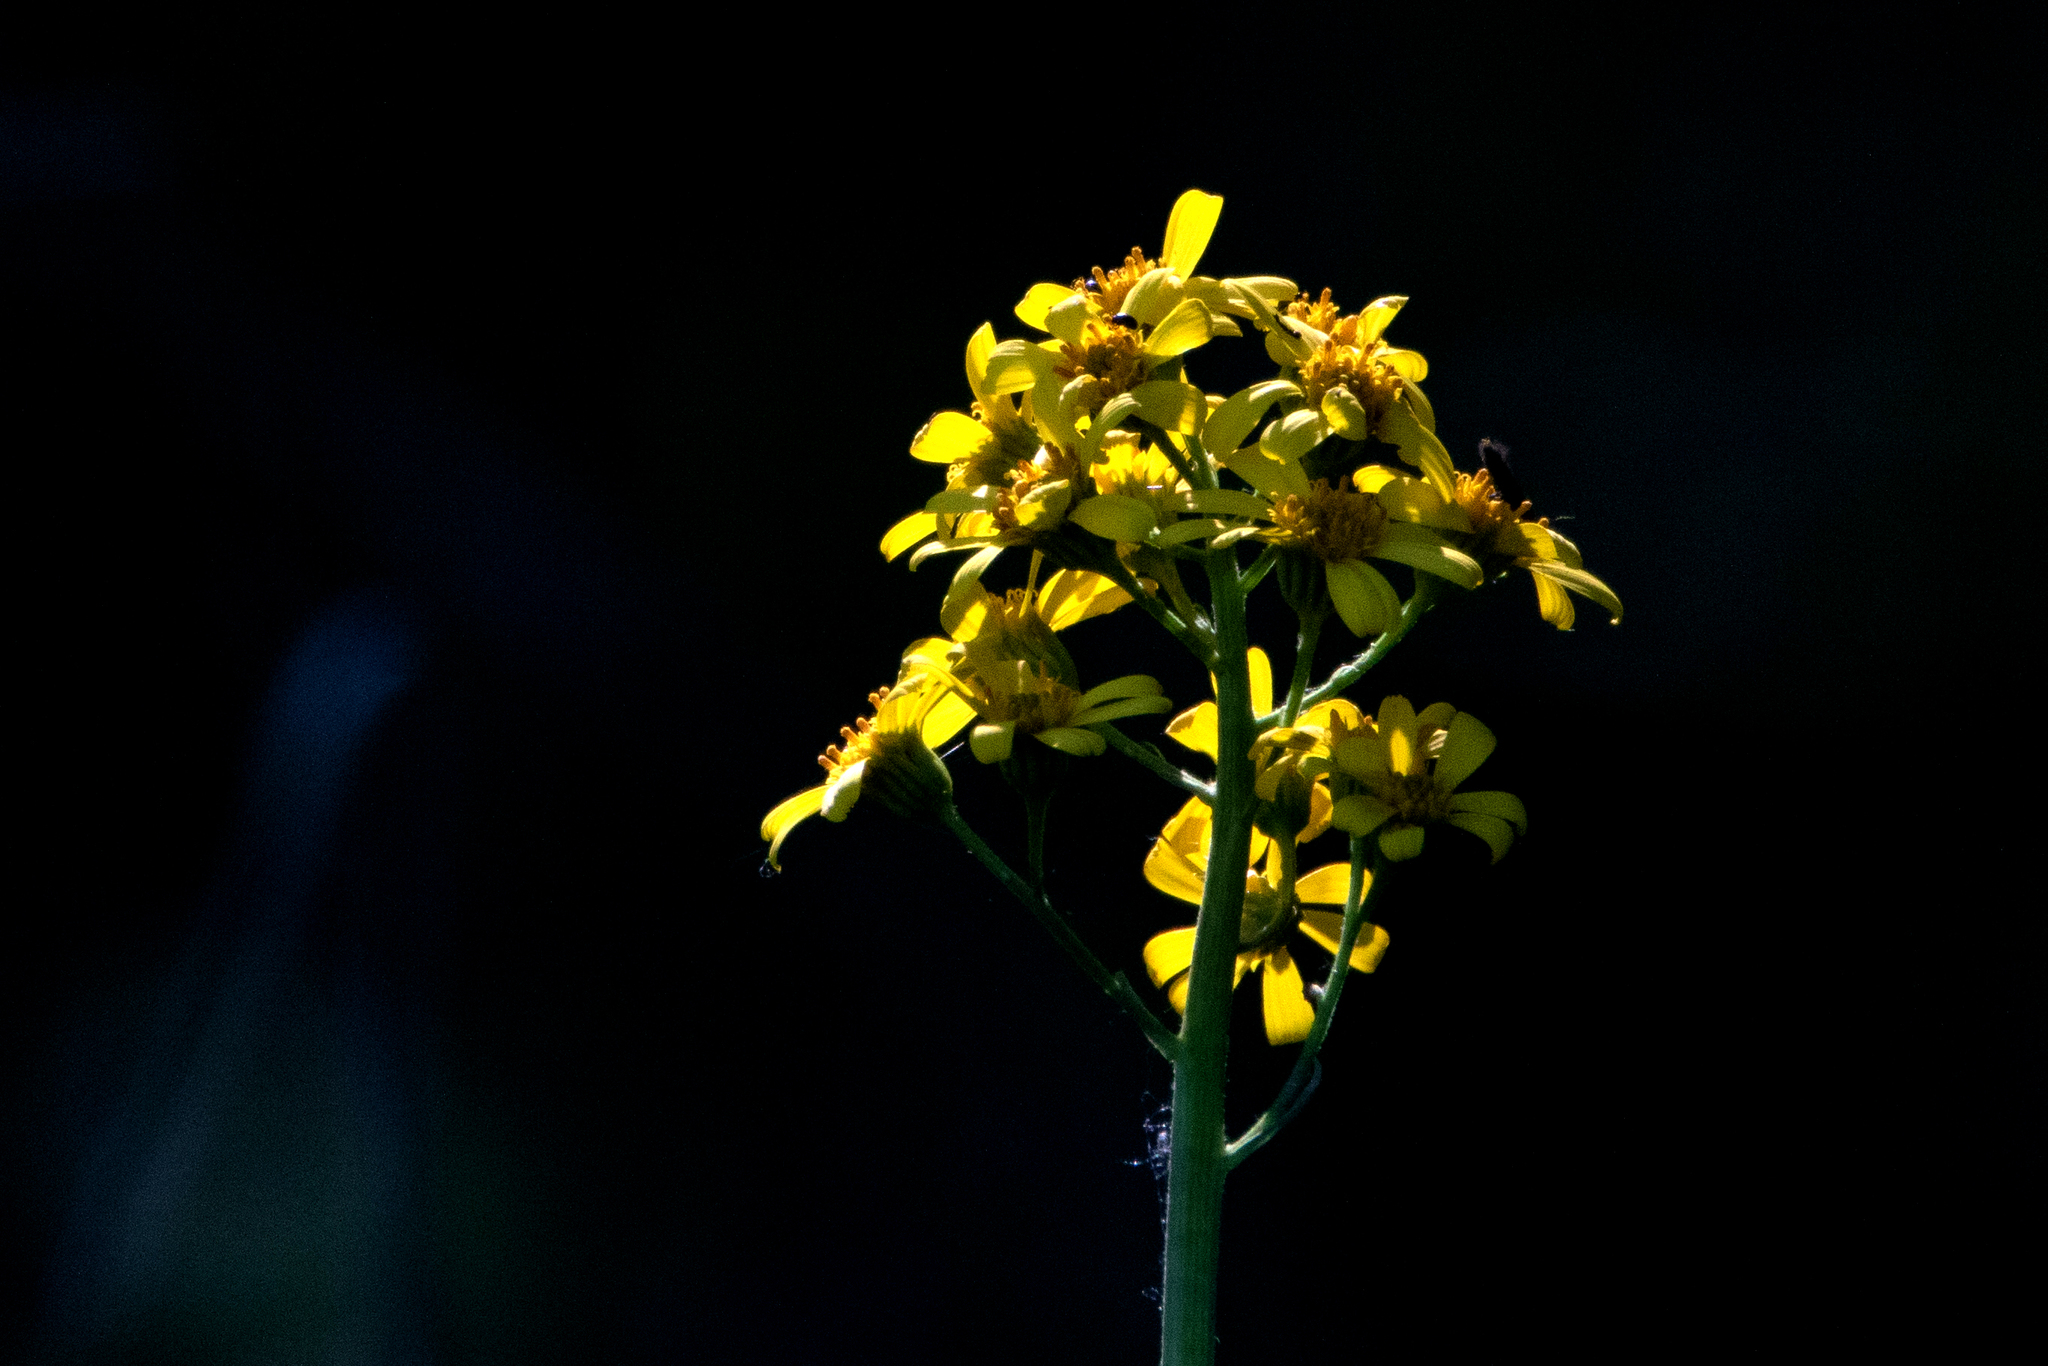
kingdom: Plantae
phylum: Tracheophyta
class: Magnoliopsida
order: Asterales
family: Asteraceae
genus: Ligularia
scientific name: Ligularia glauca
